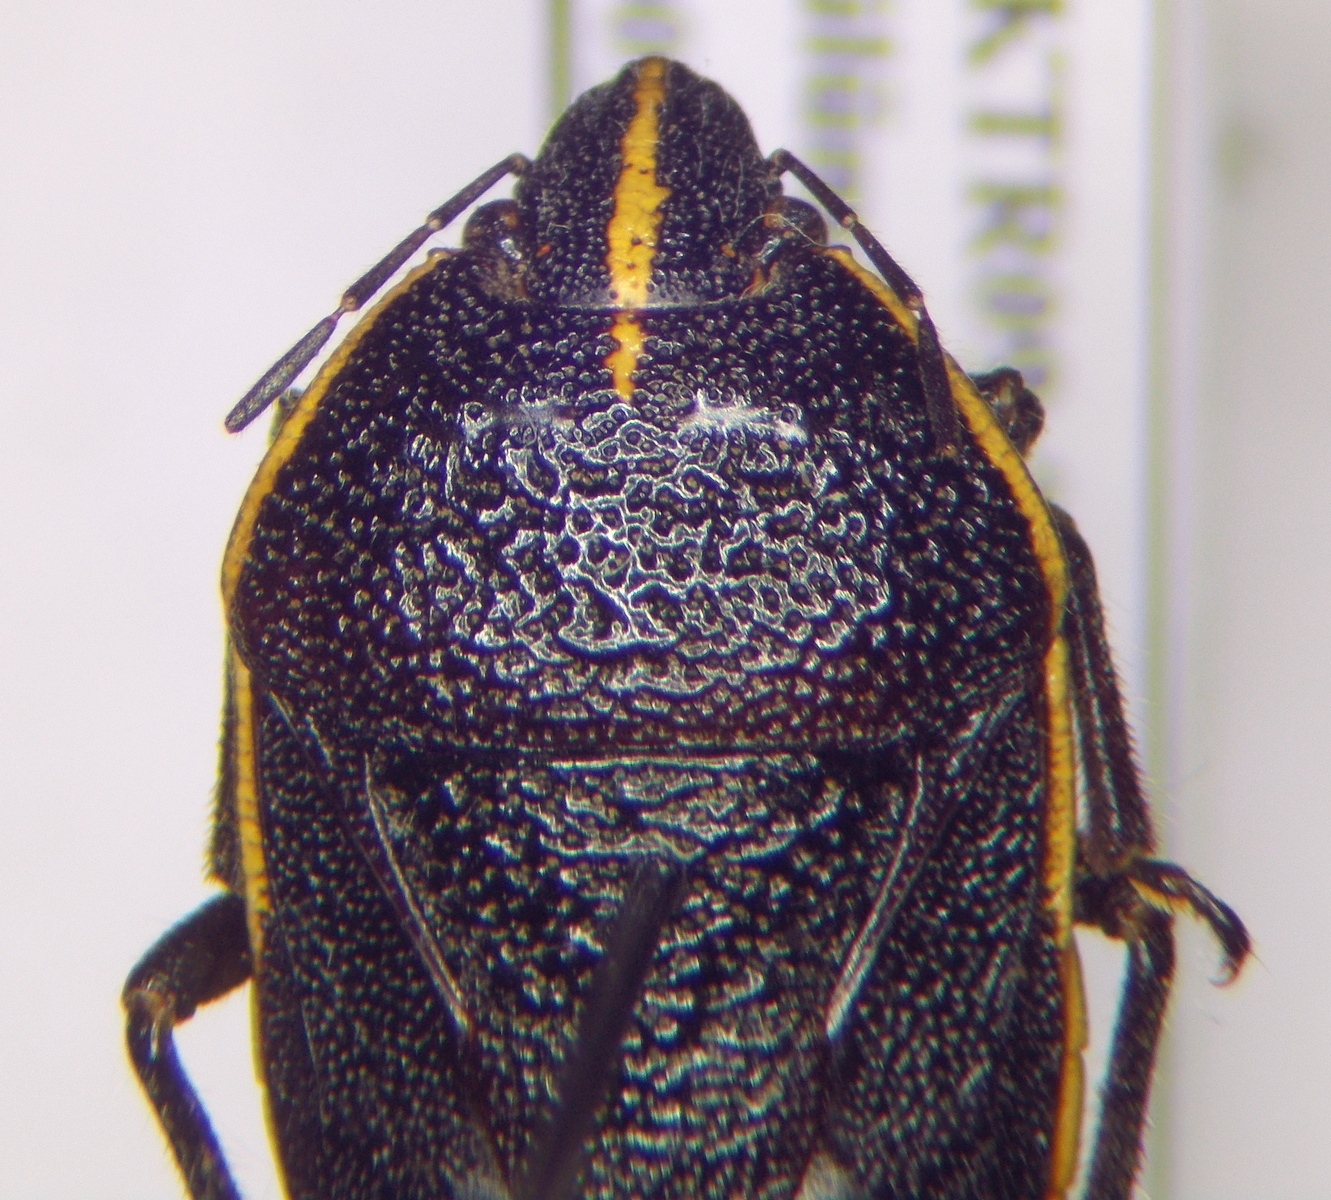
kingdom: Animalia
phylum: Arthropoda
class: Insecta
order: Hemiptera
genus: Cnephosa
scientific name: Cnephosa
